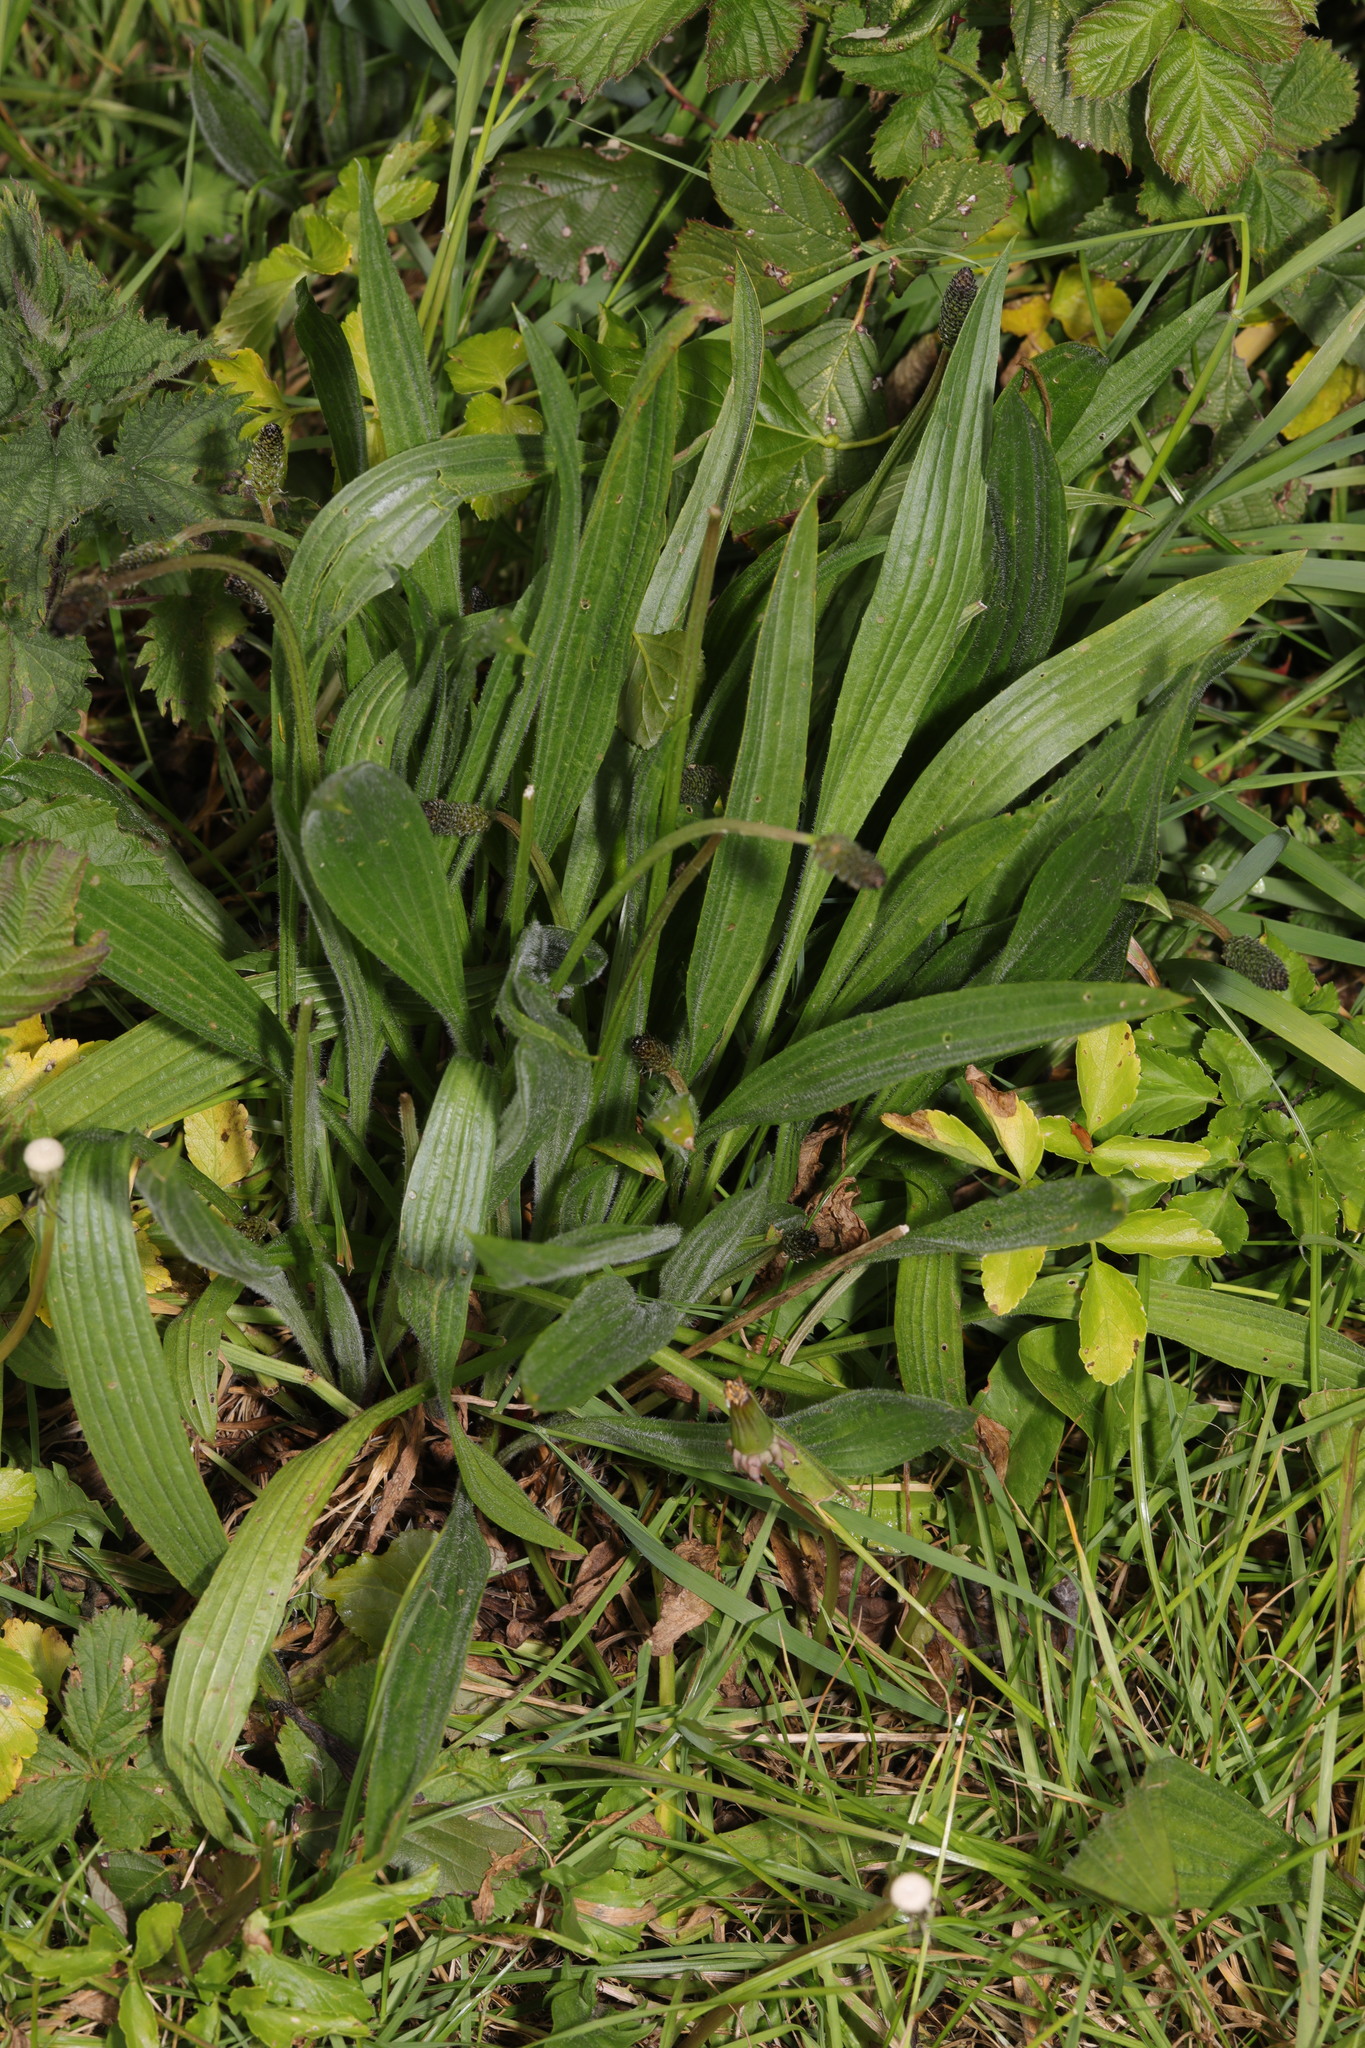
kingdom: Plantae
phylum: Tracheophyta
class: Magnoliopsida
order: Lamiales
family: Plantaginaceae
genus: Plantago
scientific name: Plantago lanceolata
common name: Ribwort plantain
